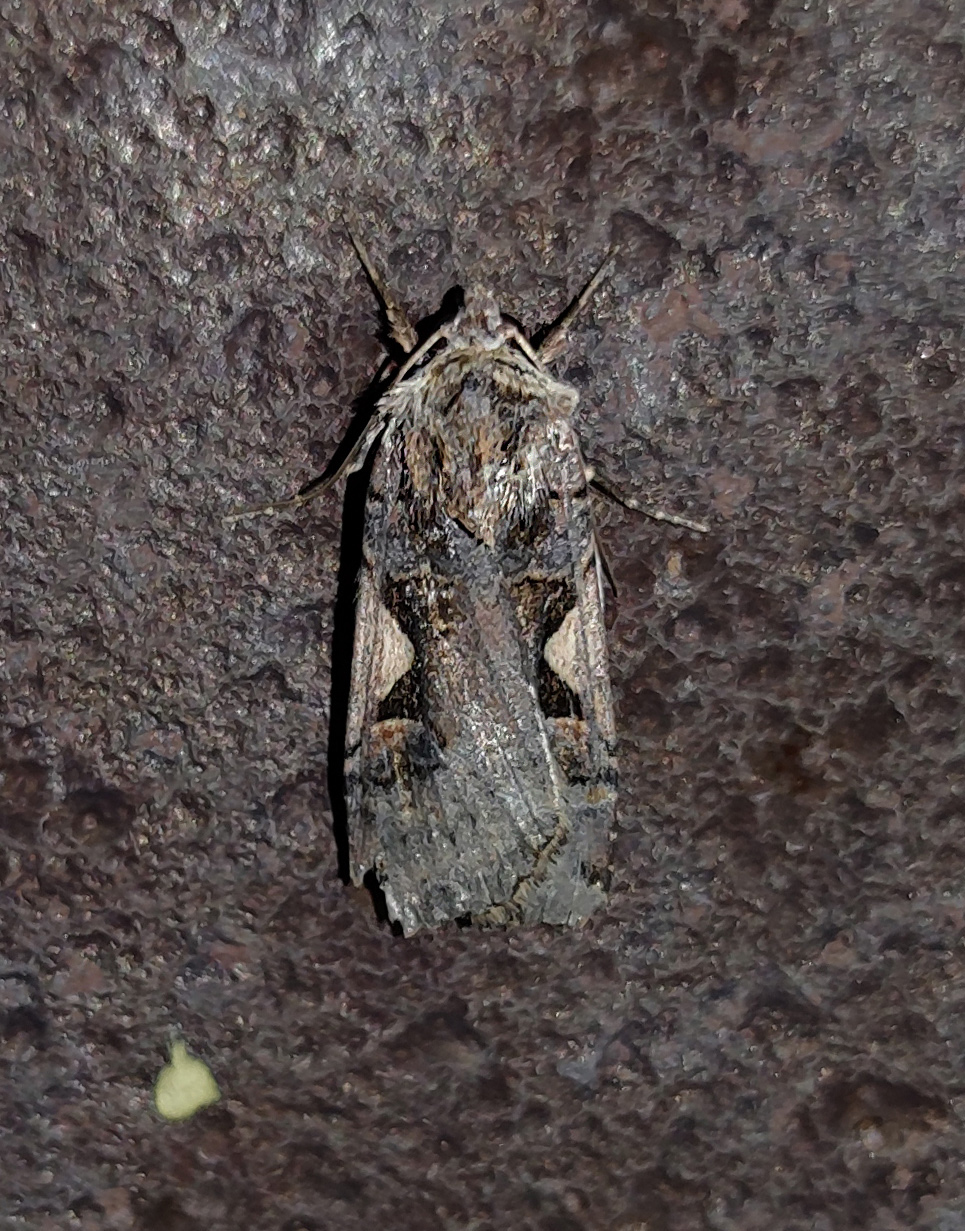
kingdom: Animalia
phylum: Arthropoda
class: Insecta
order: Lepidoptera
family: Noctuidae
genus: Xestia
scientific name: Xestia c-nigrum
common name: Setaceous hebrew character
